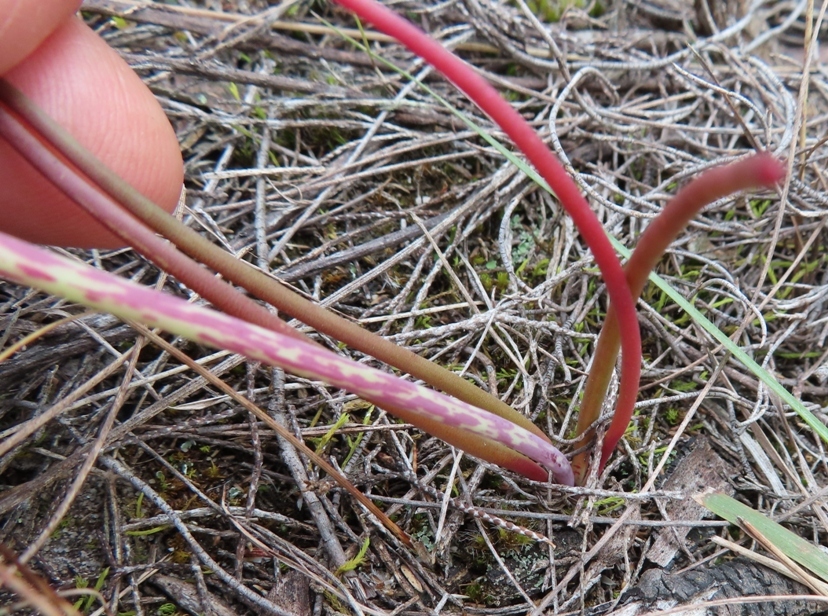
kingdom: Plantae
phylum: Tracheophyta
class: Liliopsida
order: Asparagales
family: Asparagaceae
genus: Lachenalia
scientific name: Lachenalia contaminata
